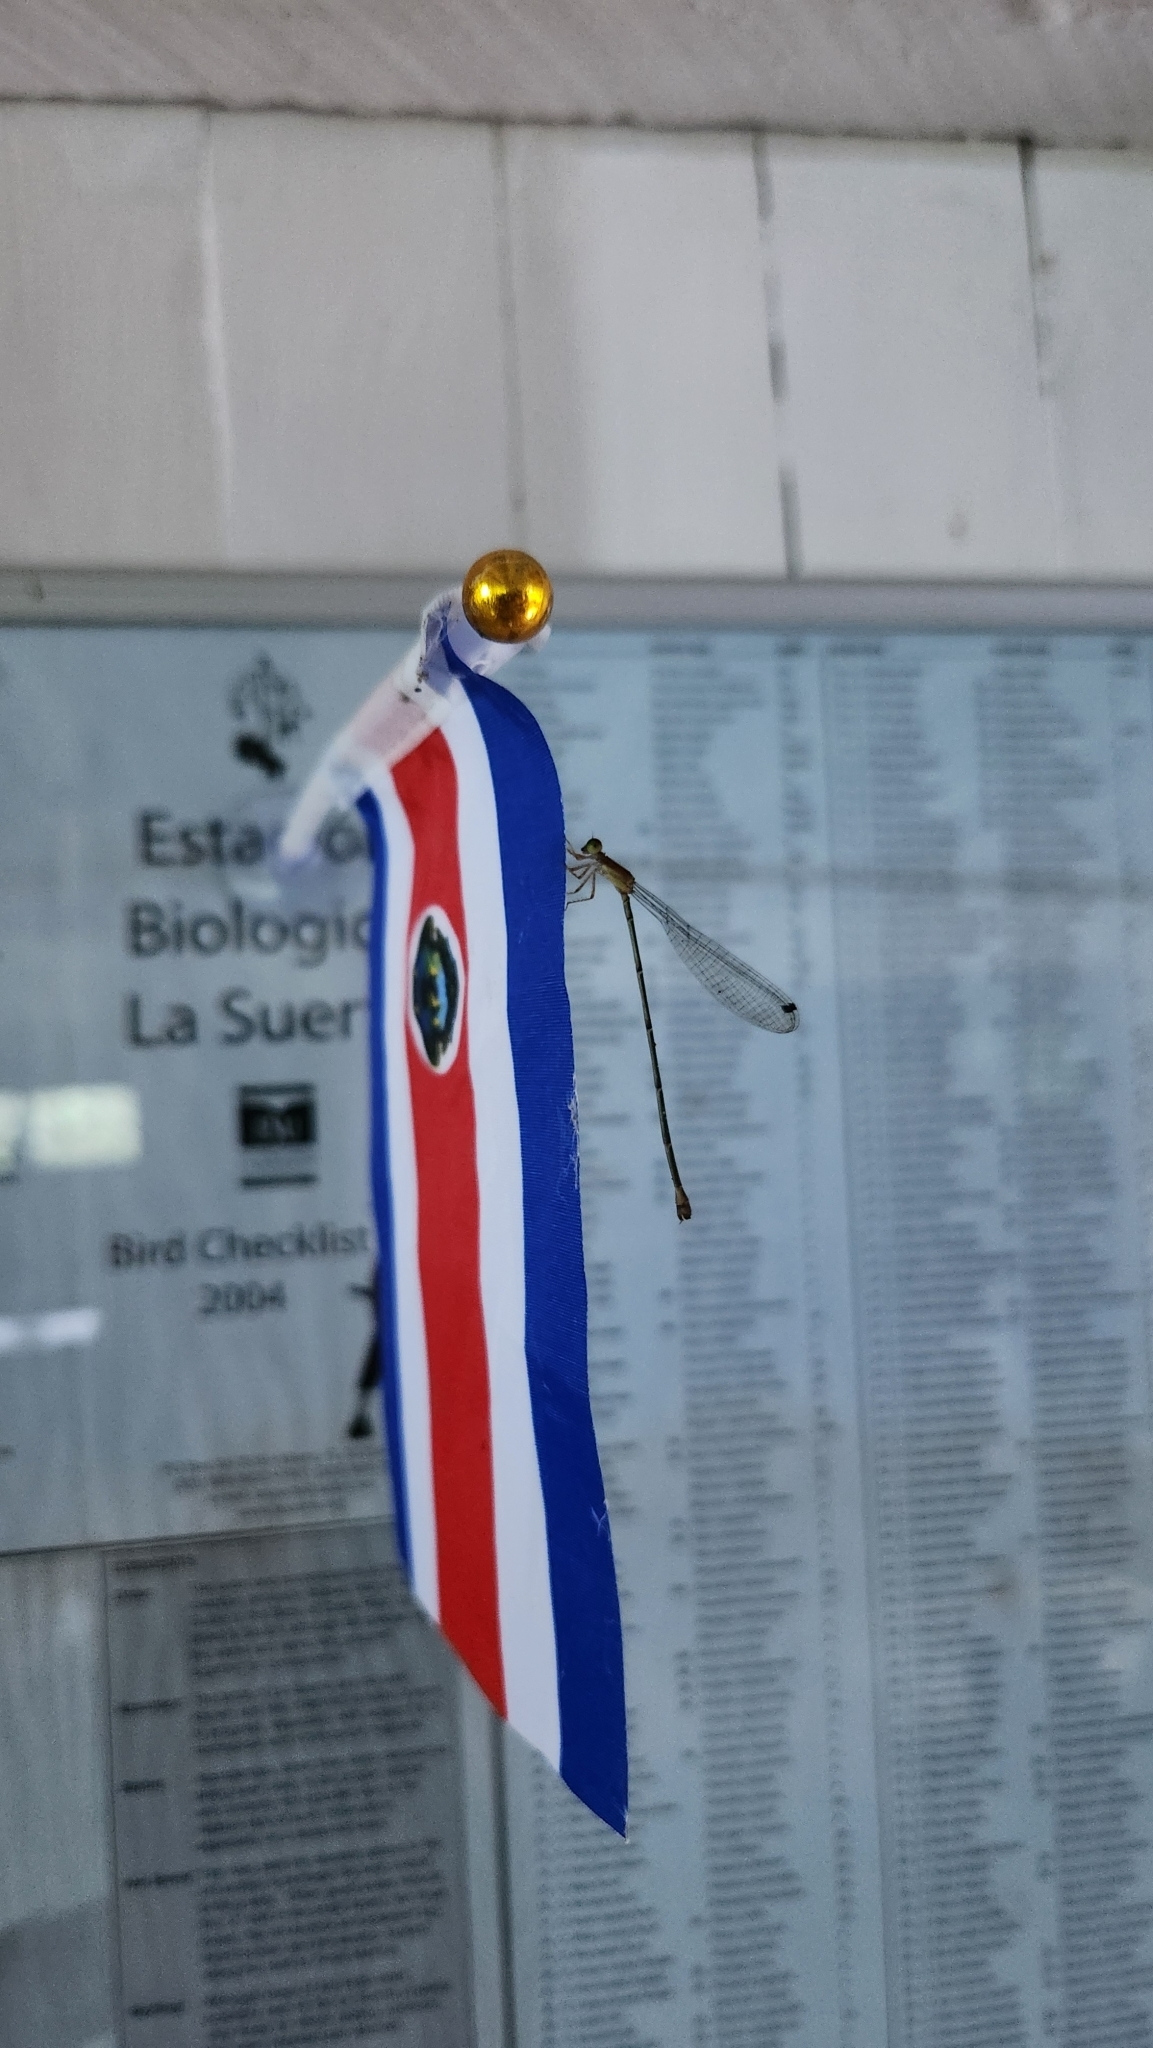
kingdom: Animalia
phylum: Arthropoda
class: Insecta
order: Odonata
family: Coenagrionidae
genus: Metaleptobasis
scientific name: Metaleptobasis bovilla
